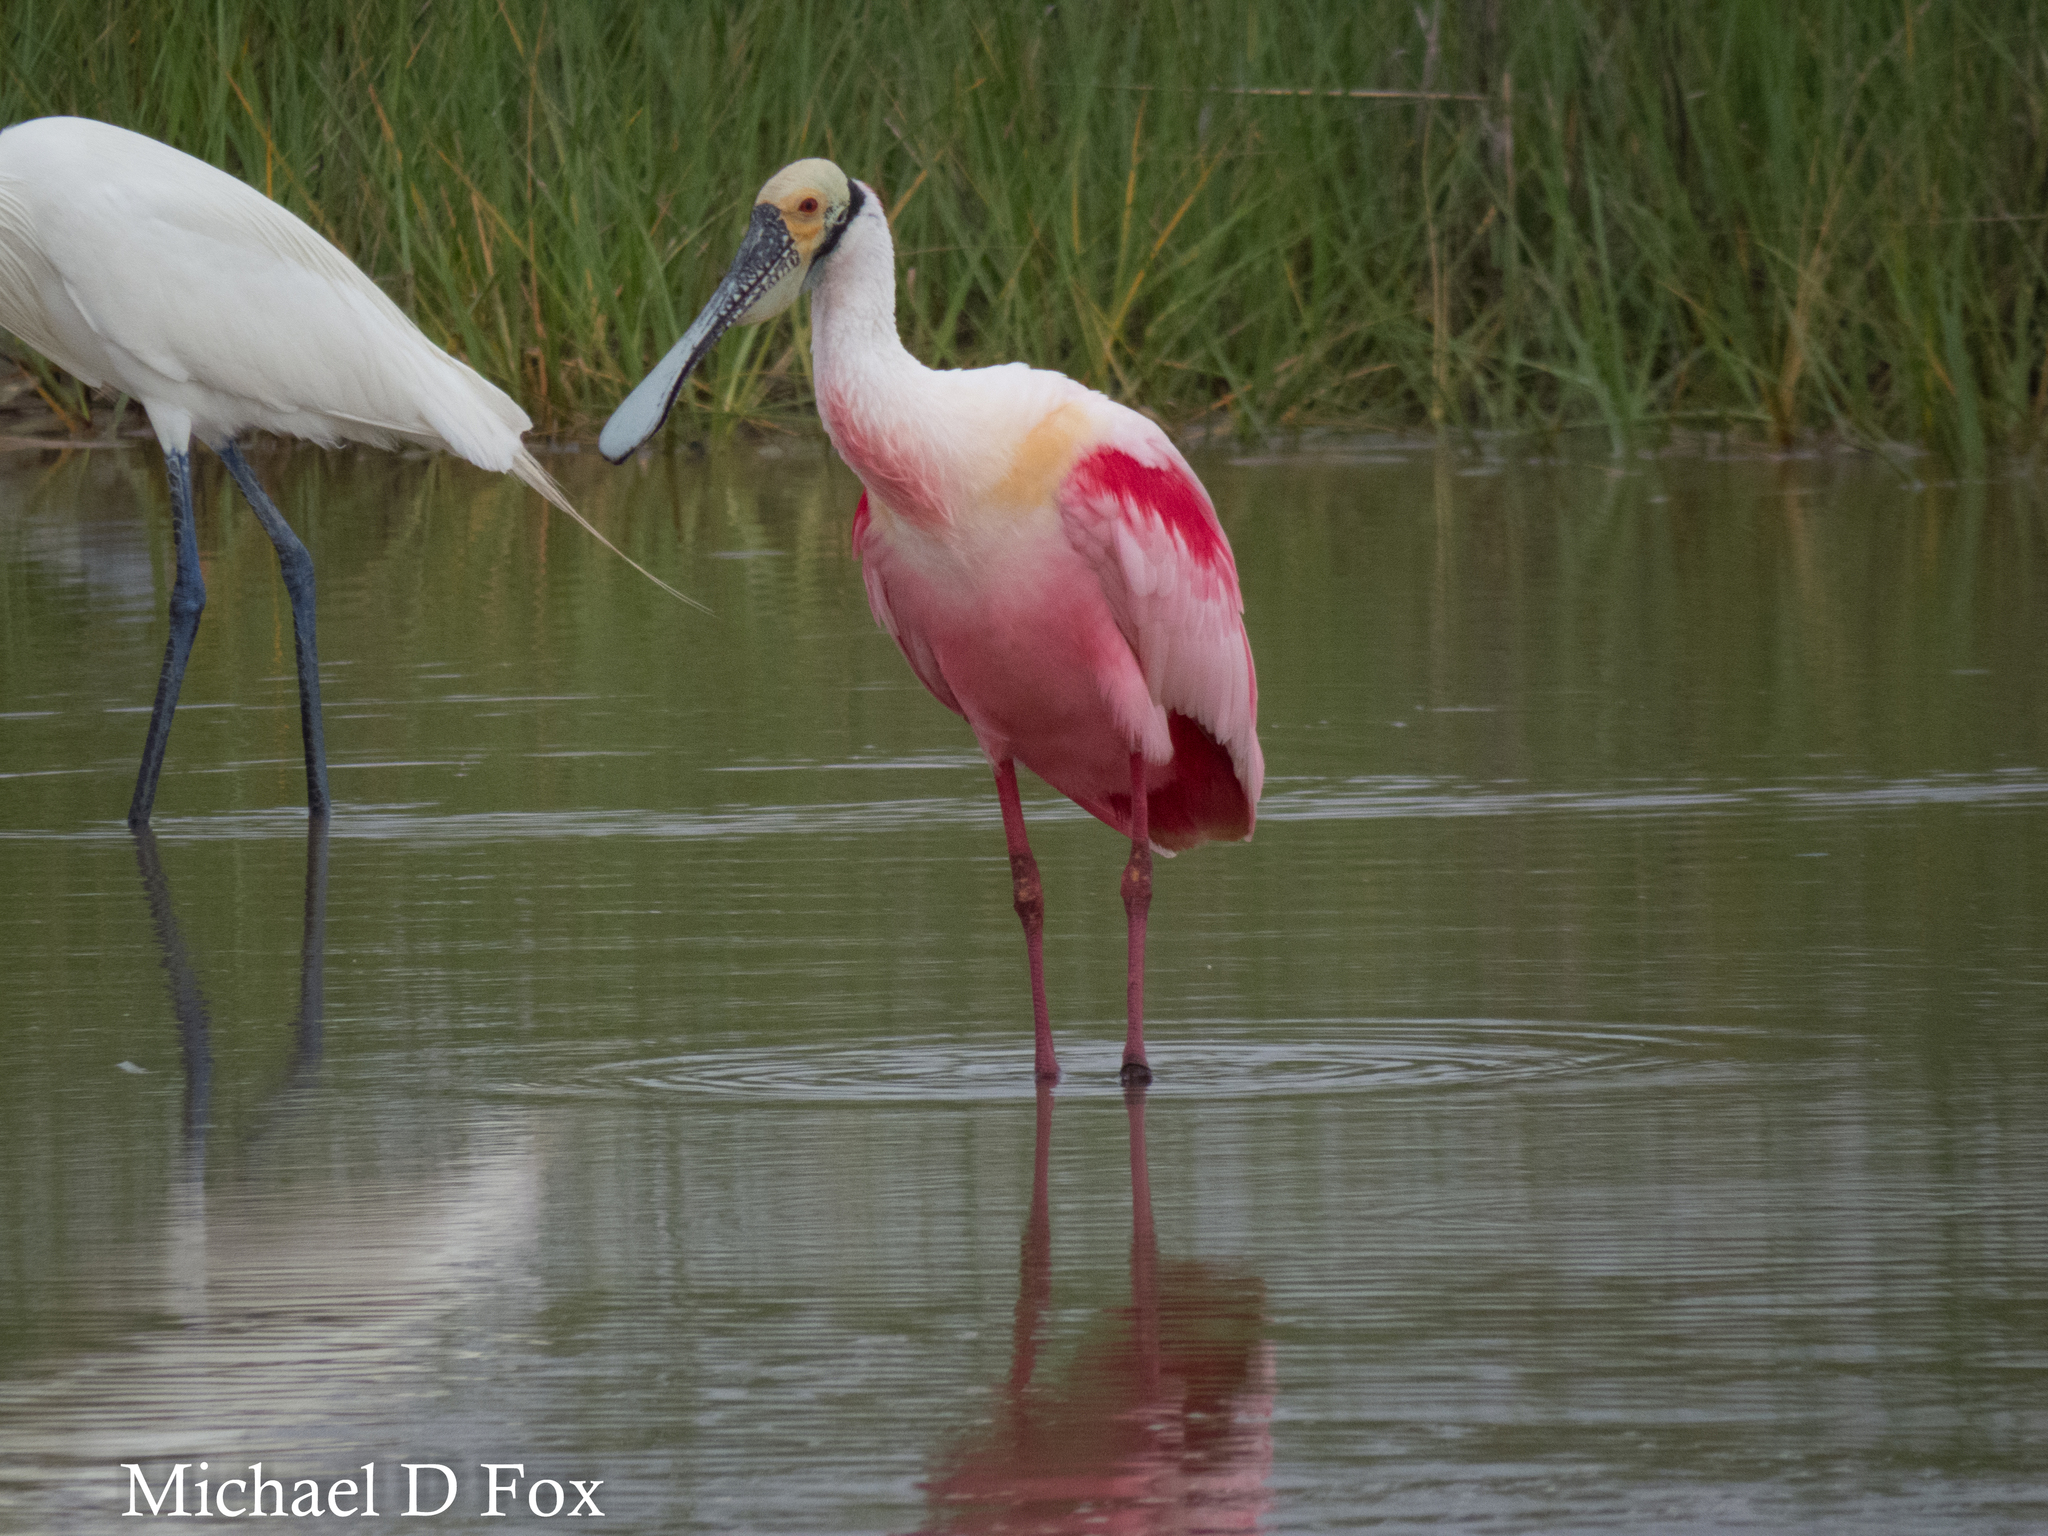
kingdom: Animalia
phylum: Chordata
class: Aves
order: Pelecaniformes
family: Threskiornithidae
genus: Platalea
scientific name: Platalea ajaja
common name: Roseate spoonbill
